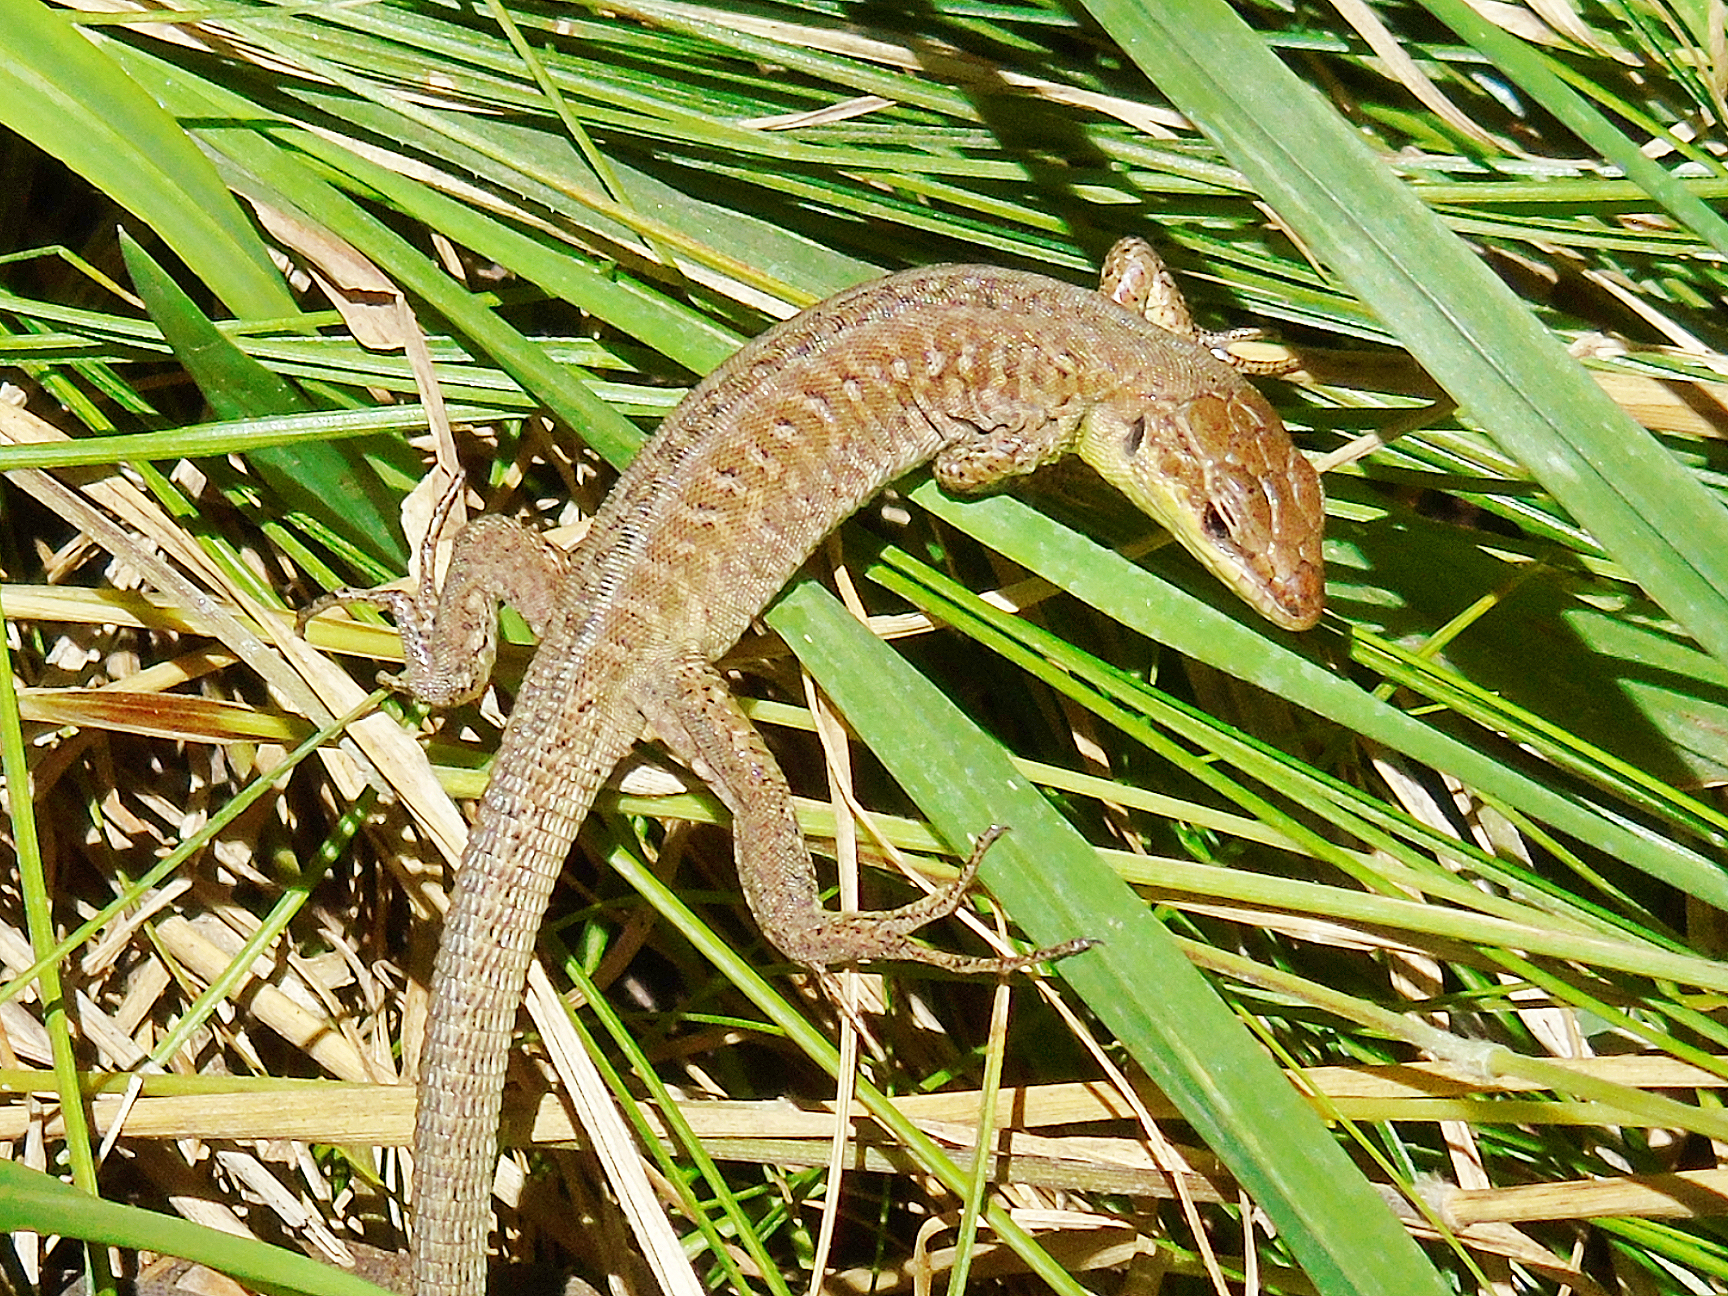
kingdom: Animalia
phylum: Chordata
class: Squamata
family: Lacertidae
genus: Podarcis
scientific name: Podarcis siculus
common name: Italian wall lizard
